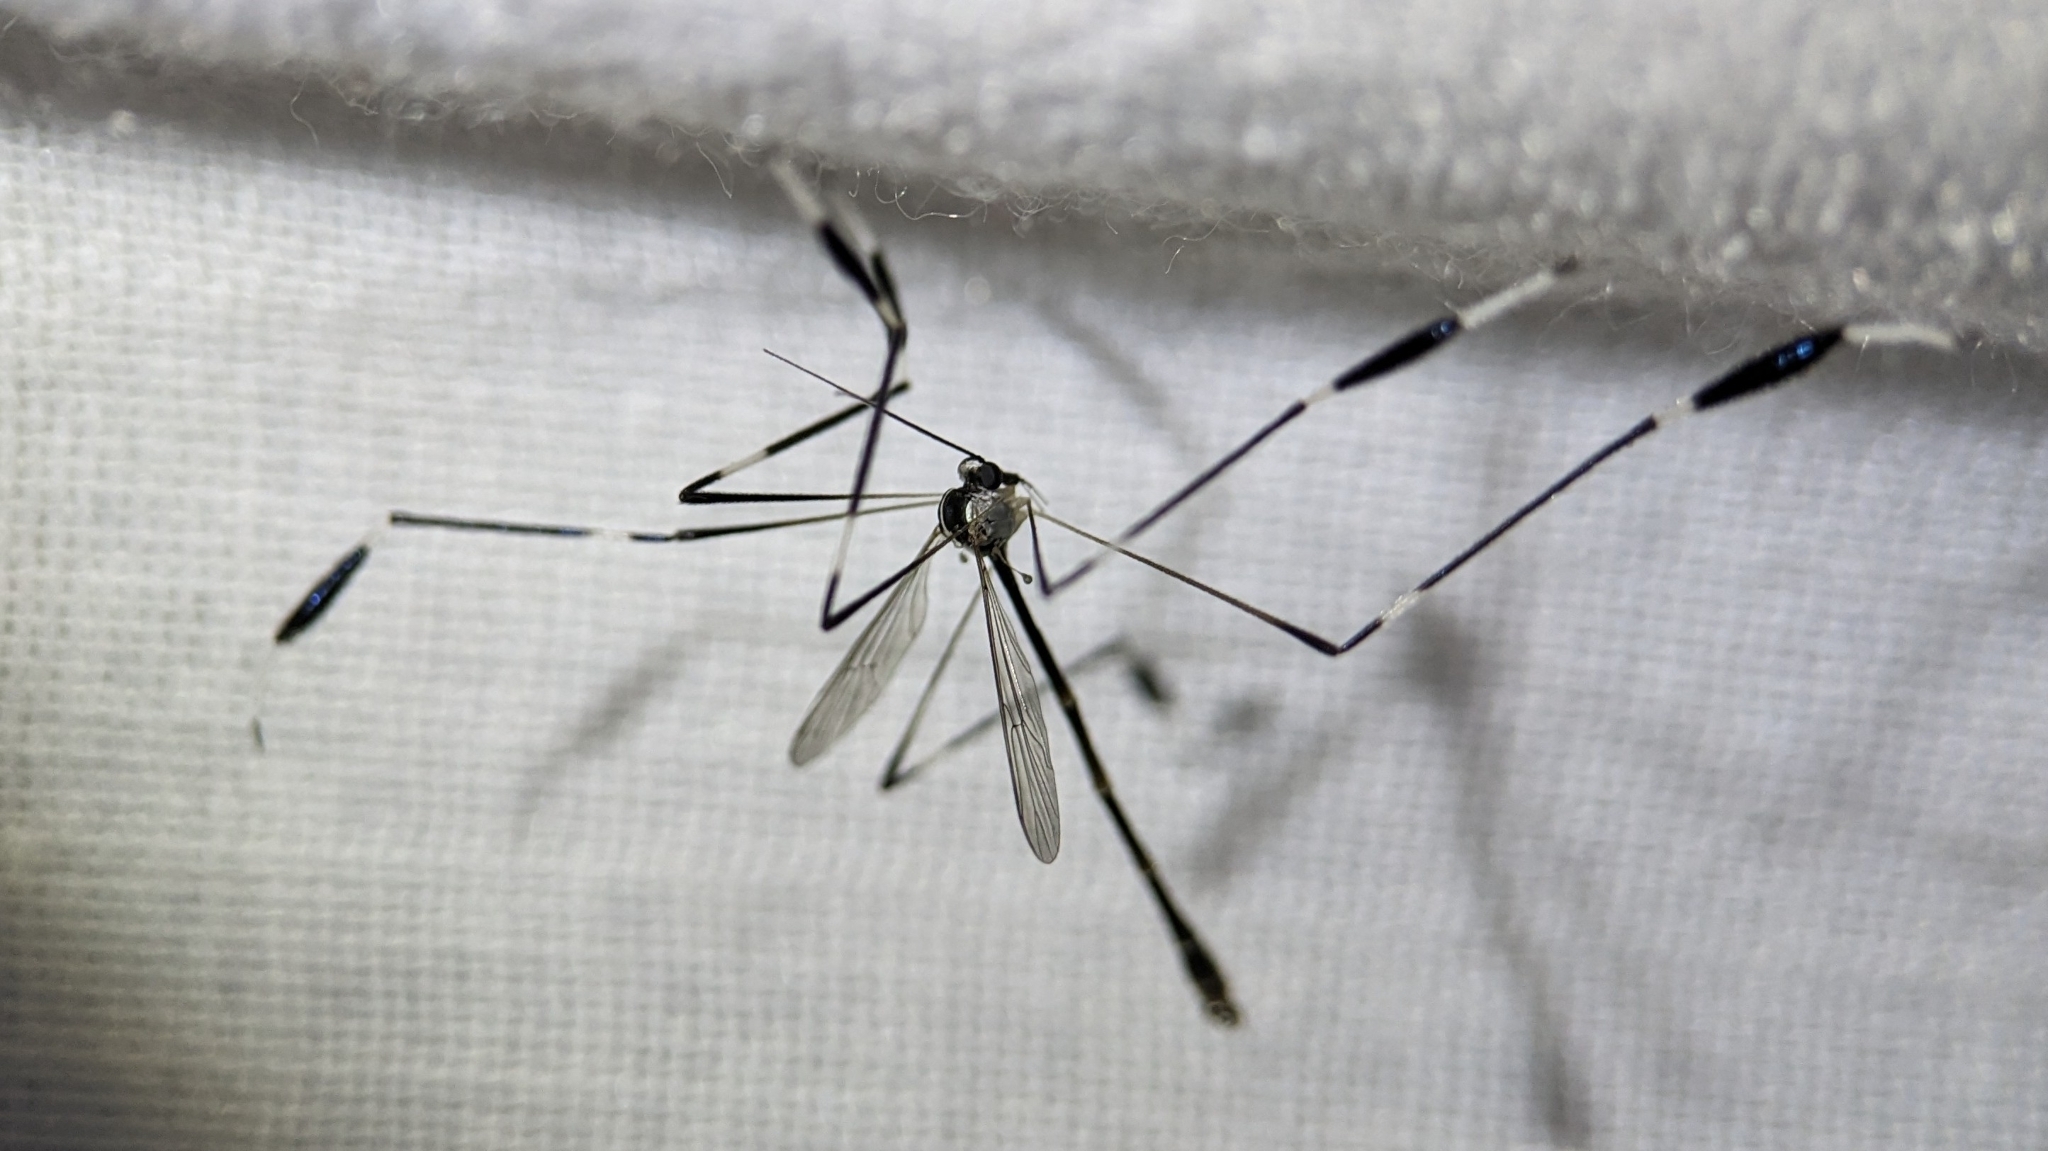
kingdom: Animalia
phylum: Arthropoda
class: Insecta
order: Diptera
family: Ptychopteridae
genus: Bittacomorpha
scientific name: Bittacomorpha clavipes
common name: Eastern phantom crane fly
